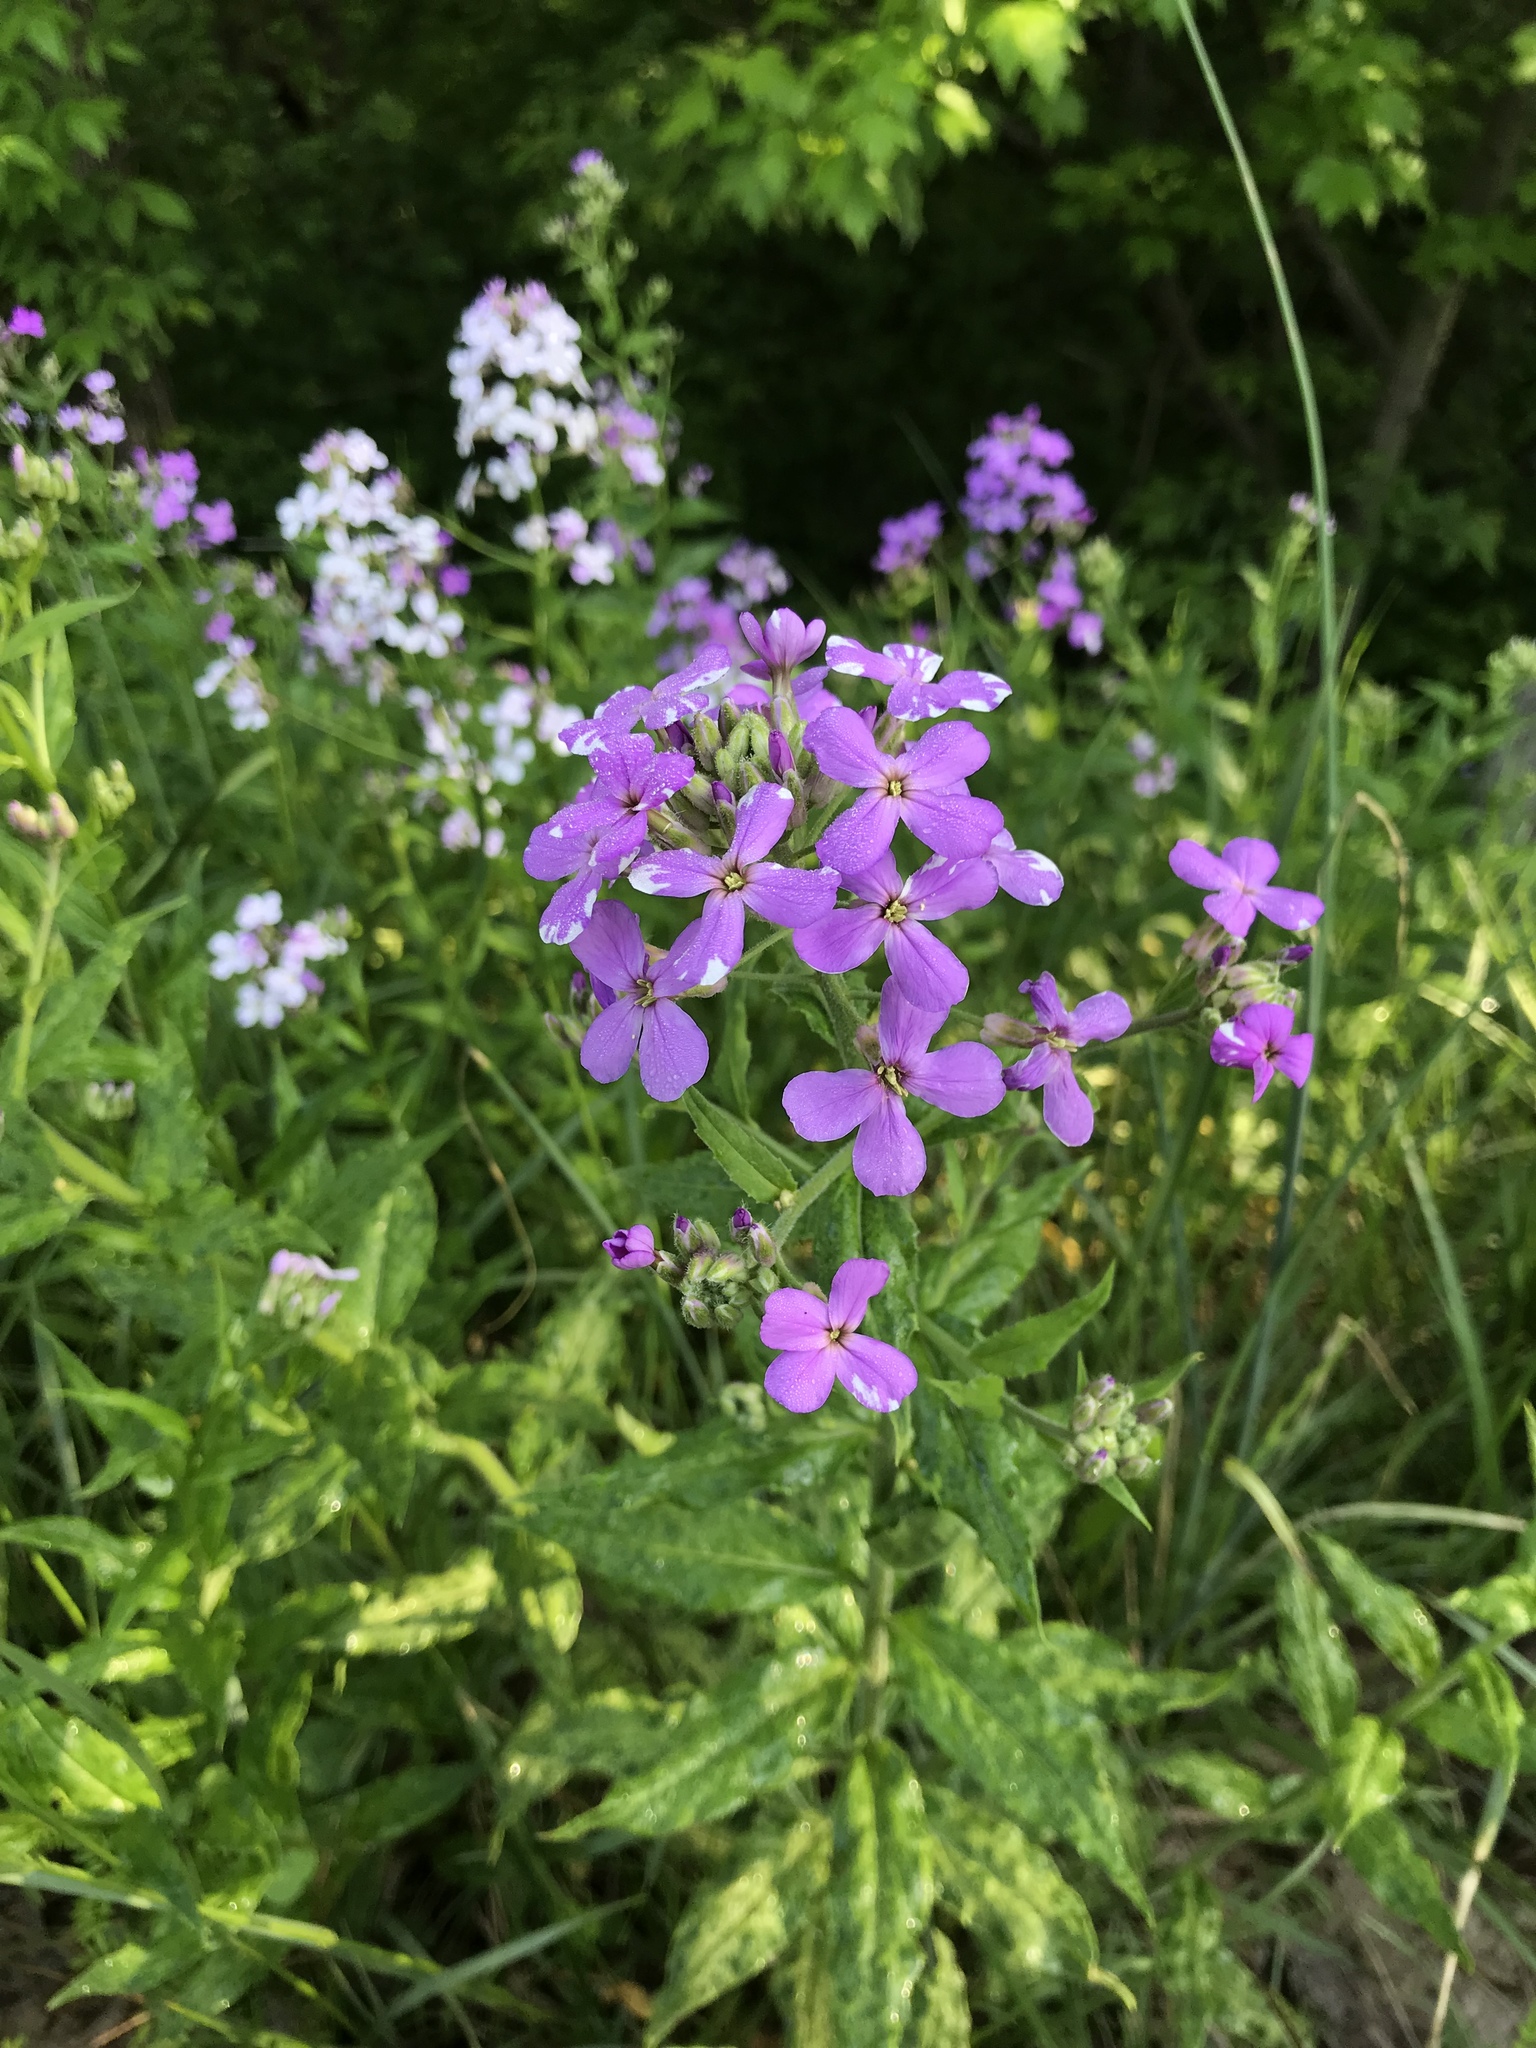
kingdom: Plantae
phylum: Tracheophyta
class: Magnoliopsida
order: Brassicales
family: Brassicaceae
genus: Hesperis
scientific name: Hesperis matronalis
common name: Dame's-violet
